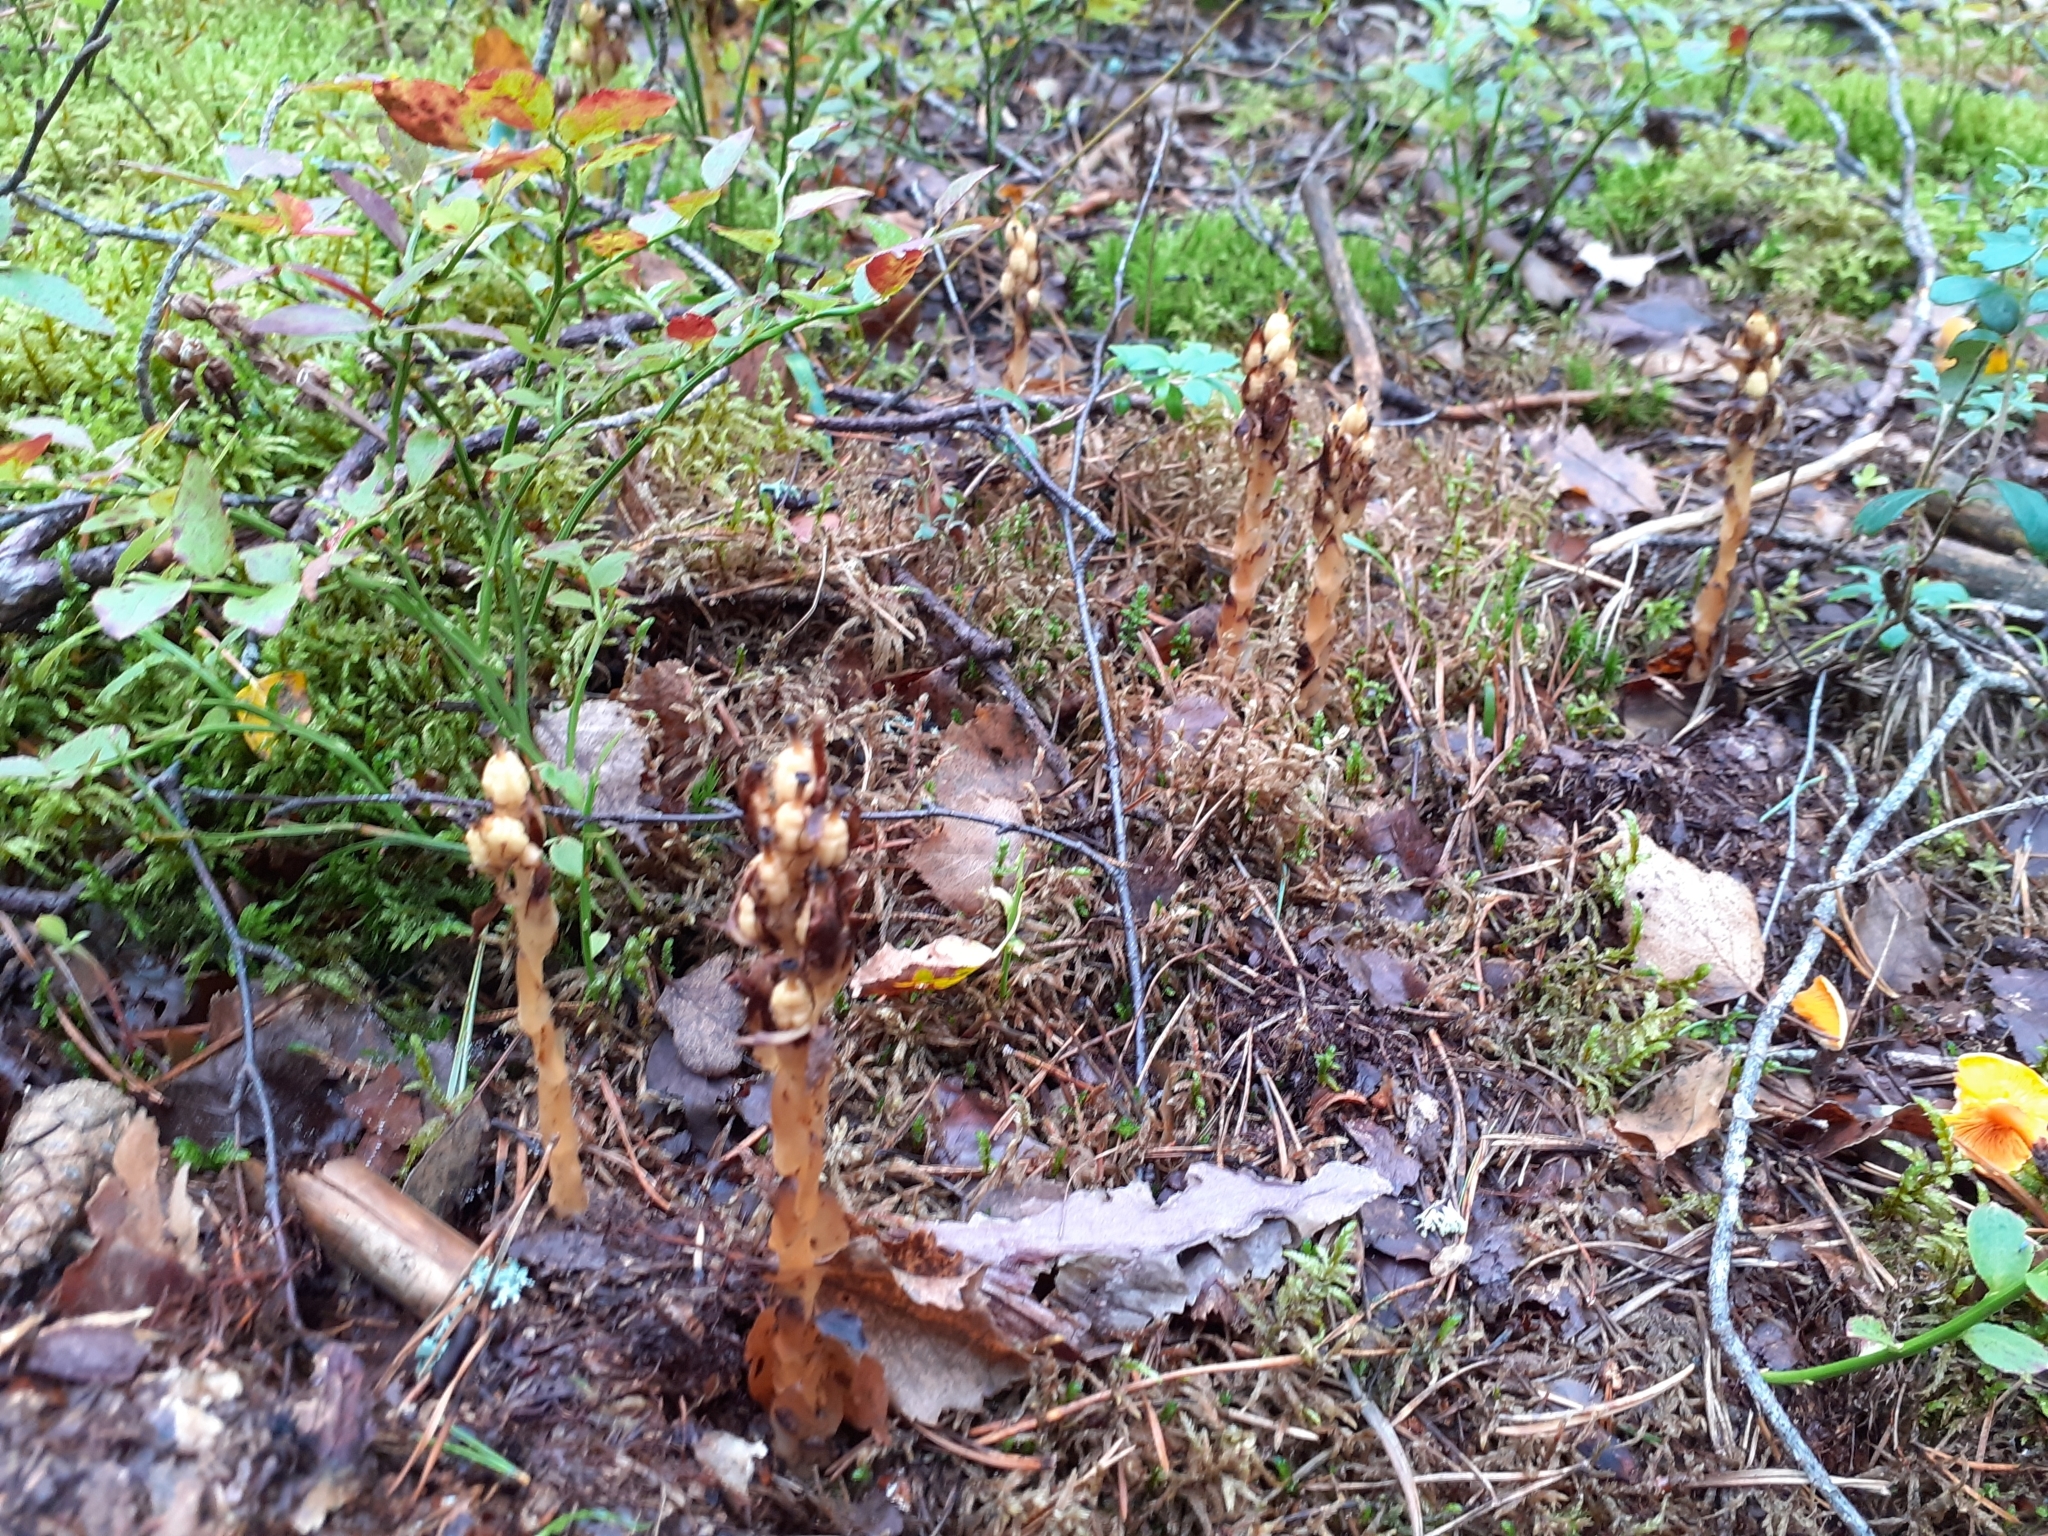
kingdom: Plantae
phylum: Tracheophyta
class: Magnoliopsida
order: Ericales
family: Ericaceae
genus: Hypopitys
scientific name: Hypopitys monotropa
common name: Yellow bird's-nest
